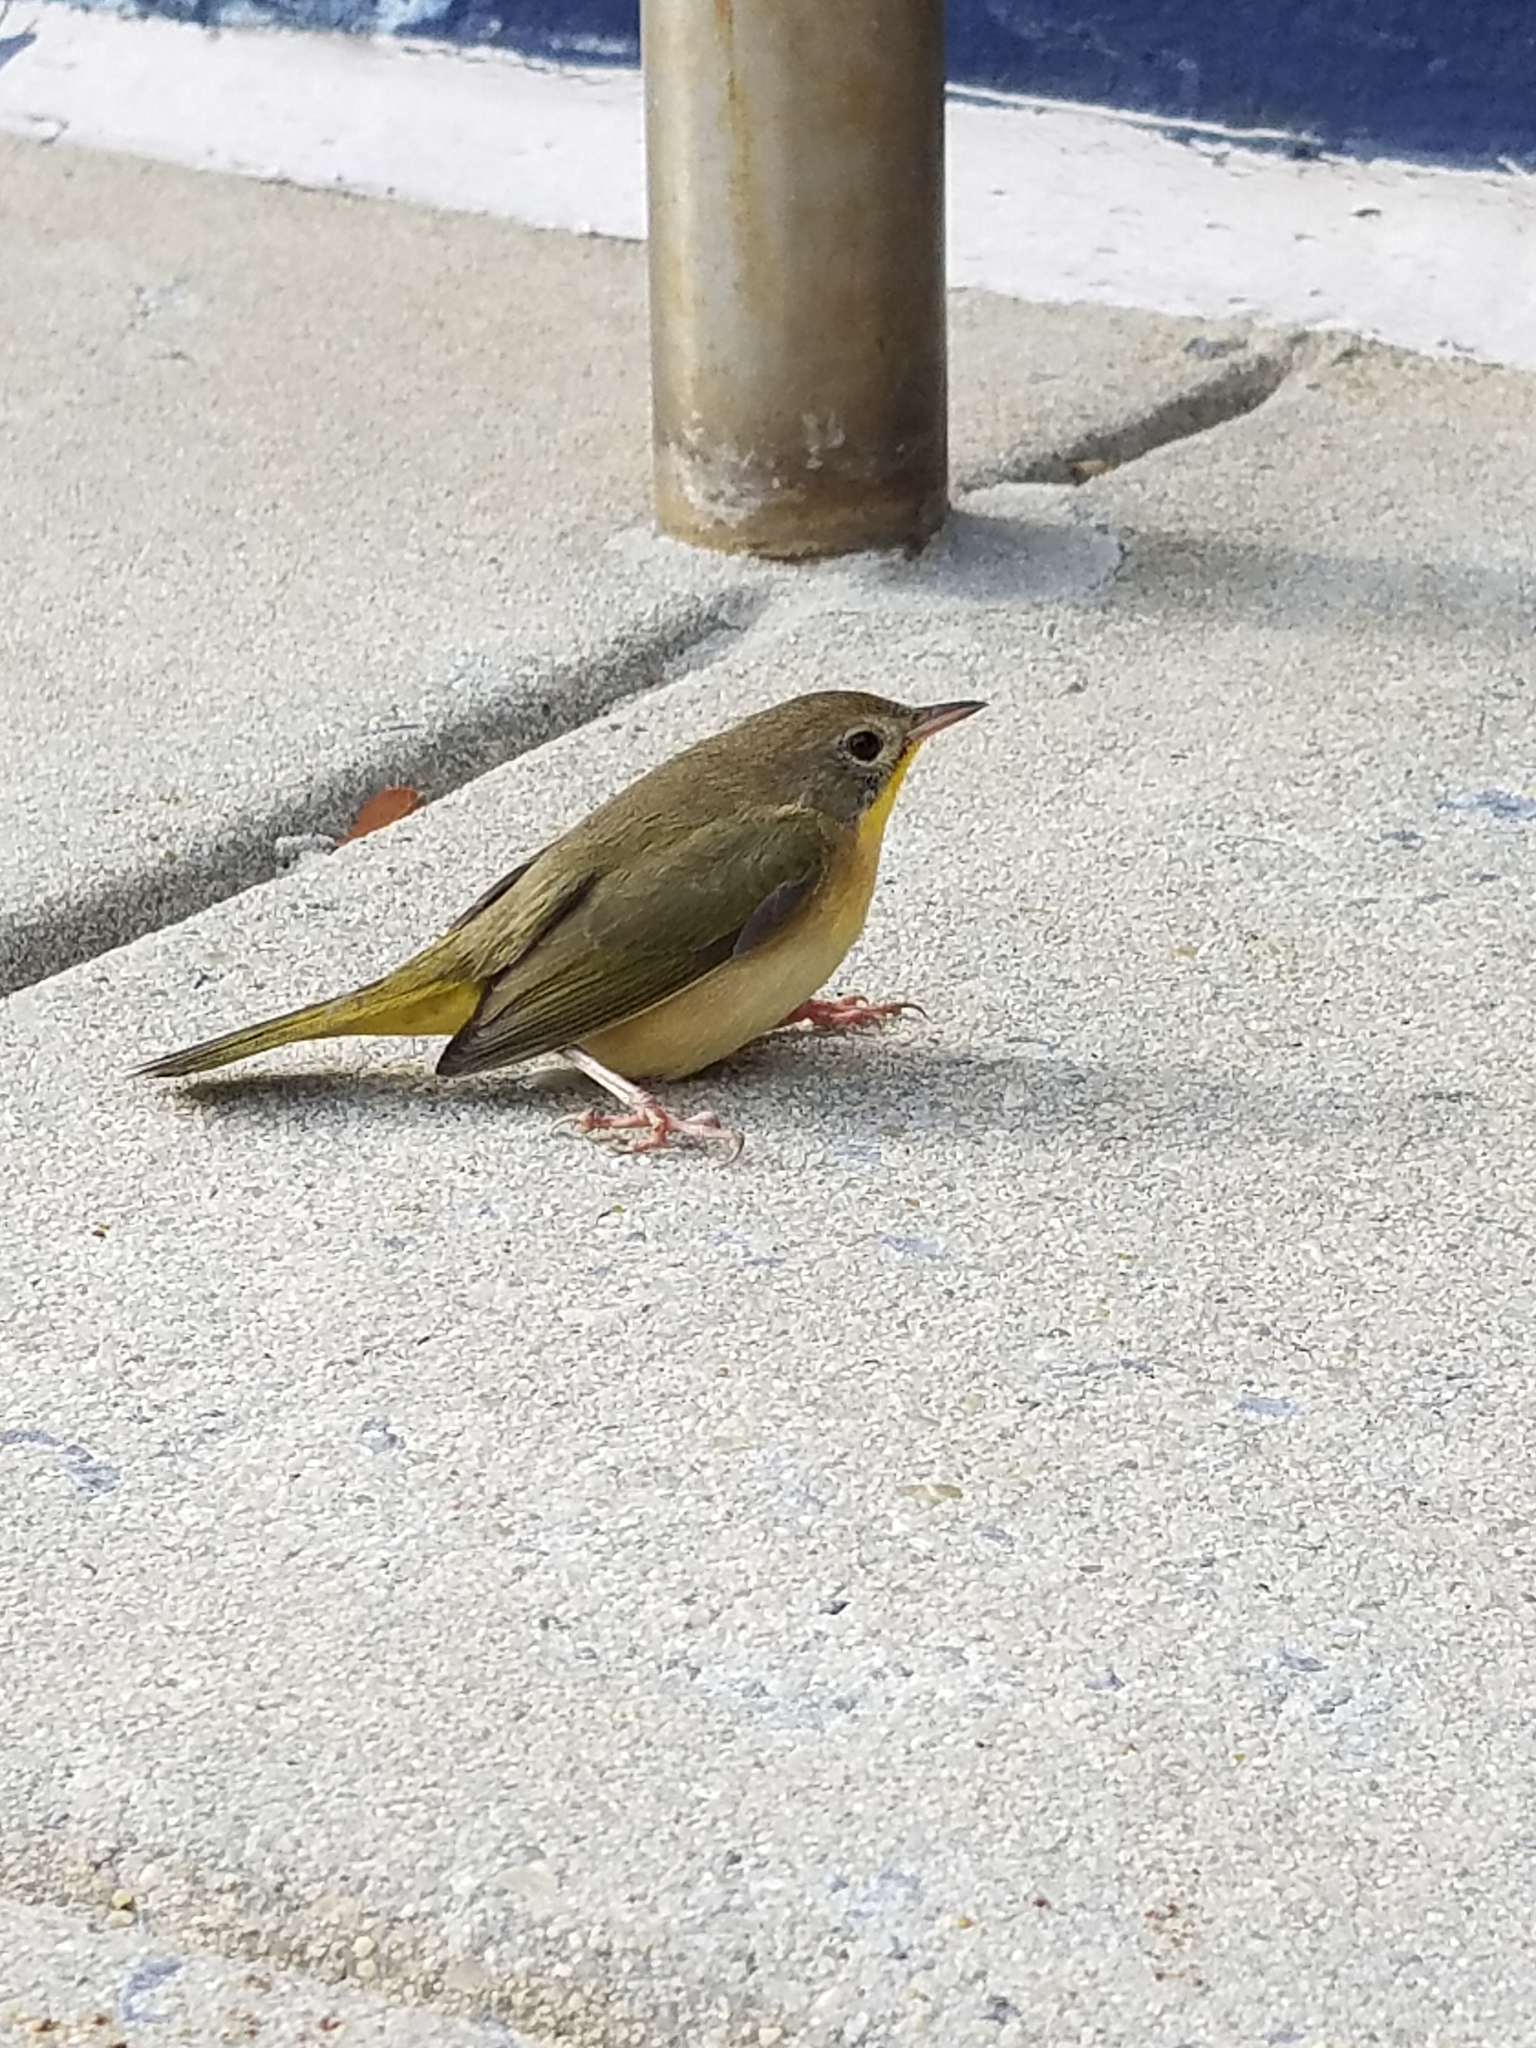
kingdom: Animalia
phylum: Chordata
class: Aves
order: Passeriformes
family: Parulidae
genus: Geothlypis
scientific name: Geothlypis trichas
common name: Common yellowthroat
